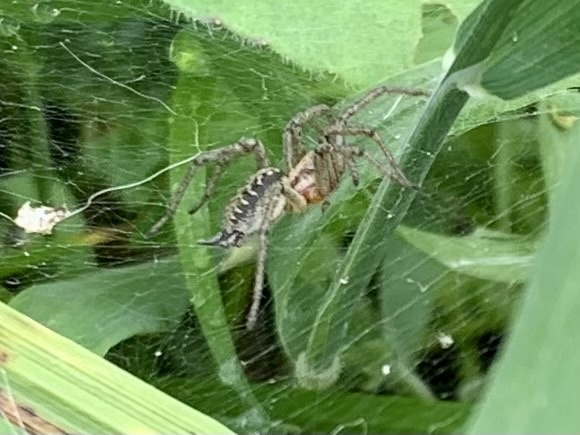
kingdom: Animalia
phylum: Arthropoda
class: Arachnida
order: Araneae
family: Agelenidae
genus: Agelena
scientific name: Agelena labyrinthica
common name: Labyrinth spider
